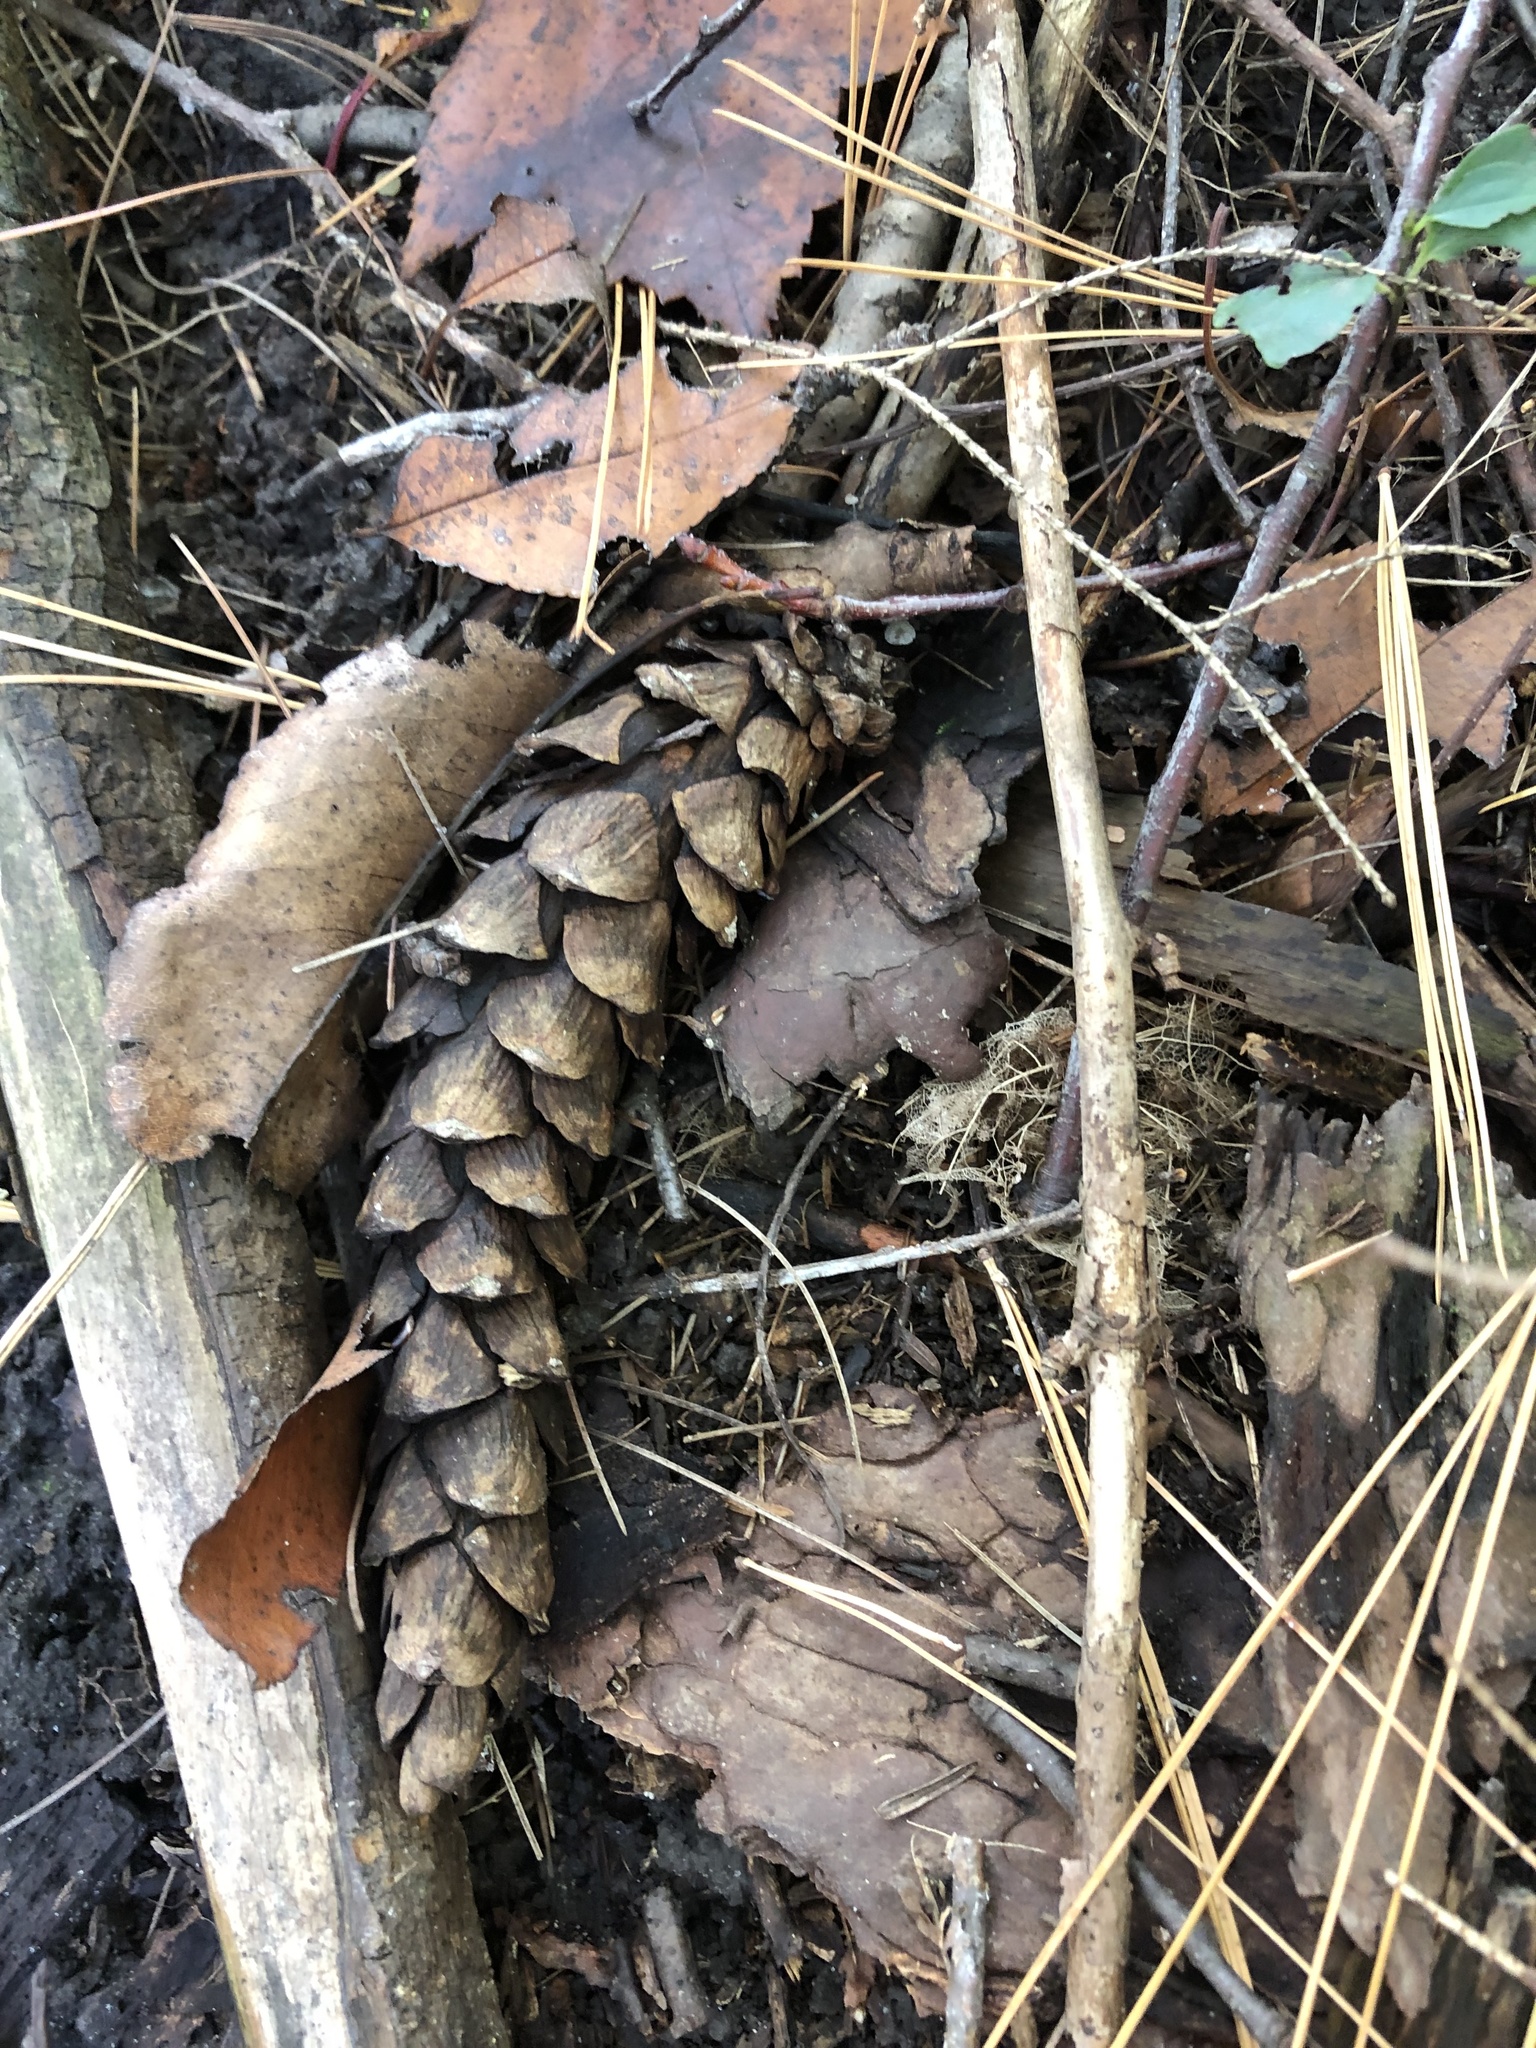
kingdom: Plantae
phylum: Tracheophyta
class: Pinopsida
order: Pinales
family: Pinaceae
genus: Pinus
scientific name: Pinus strobus
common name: Weymouth pine
